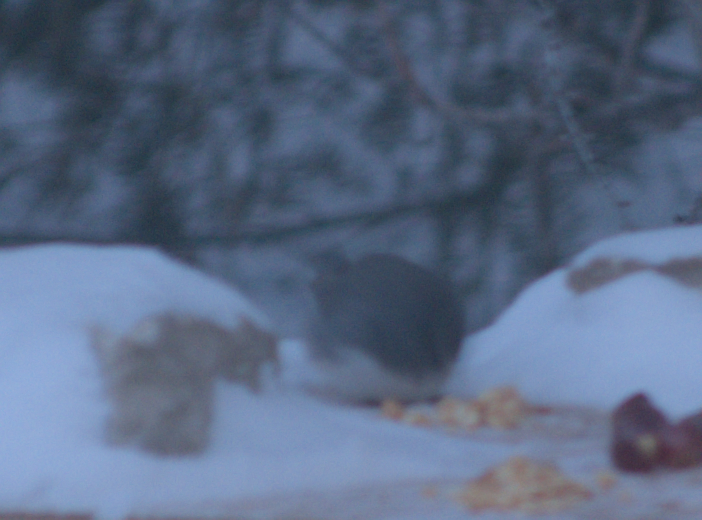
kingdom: Animalia
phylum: Chordata
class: Aves
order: Passeriformes
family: Passerellidae
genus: Junco
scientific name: Junco hyemalis
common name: Dark-eyed junco
